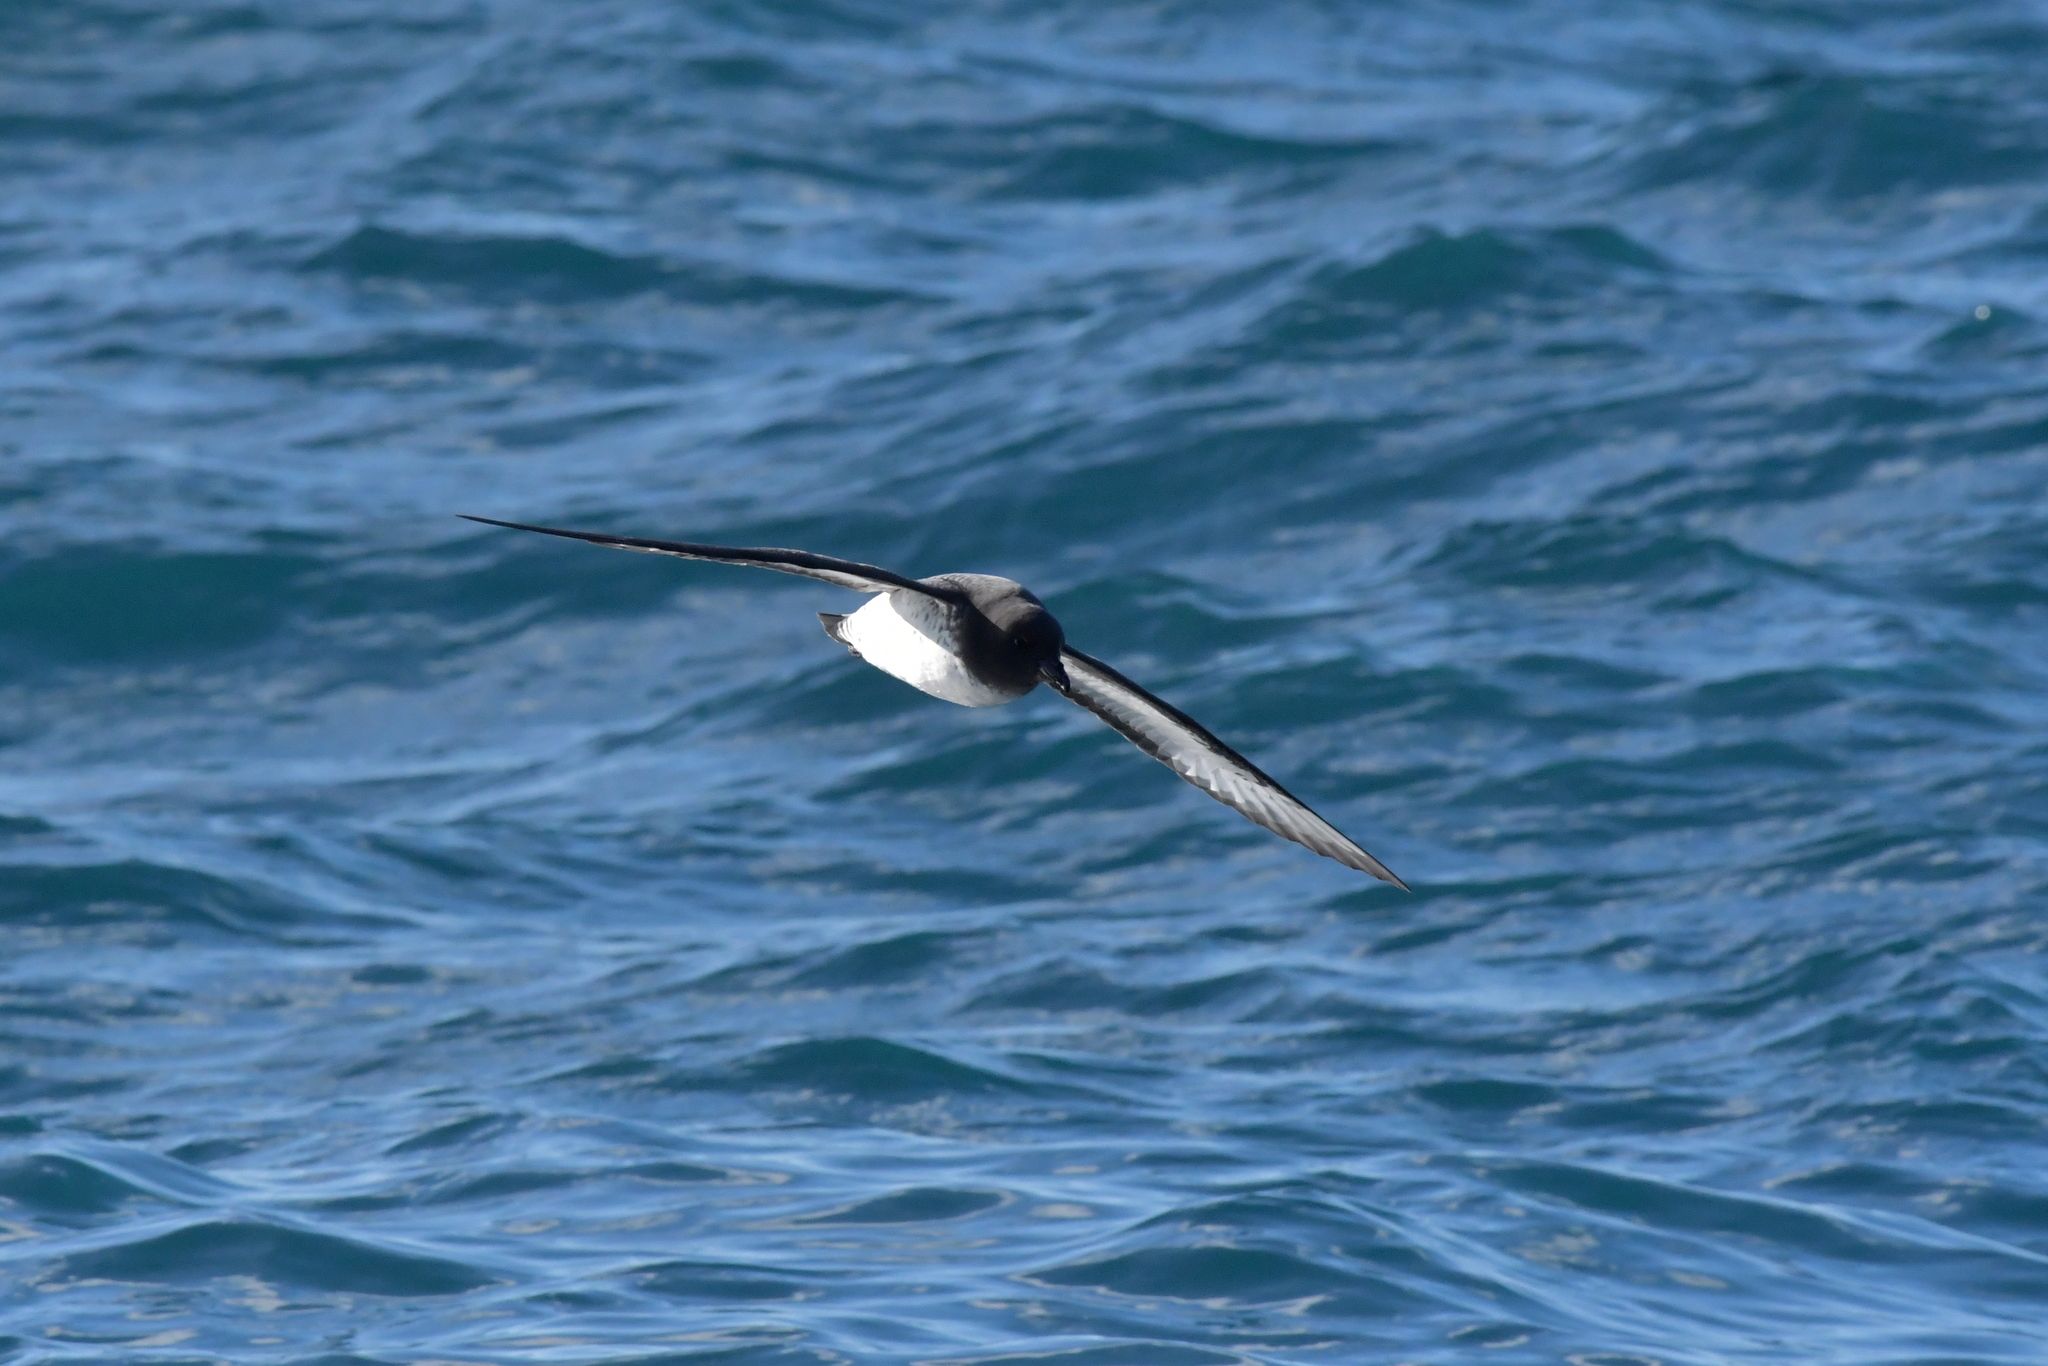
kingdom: Animalia
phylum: Chordata
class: Aves
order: Procellariiformes
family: Procellariidae
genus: Daption
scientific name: Daption capense
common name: Cape petrel
